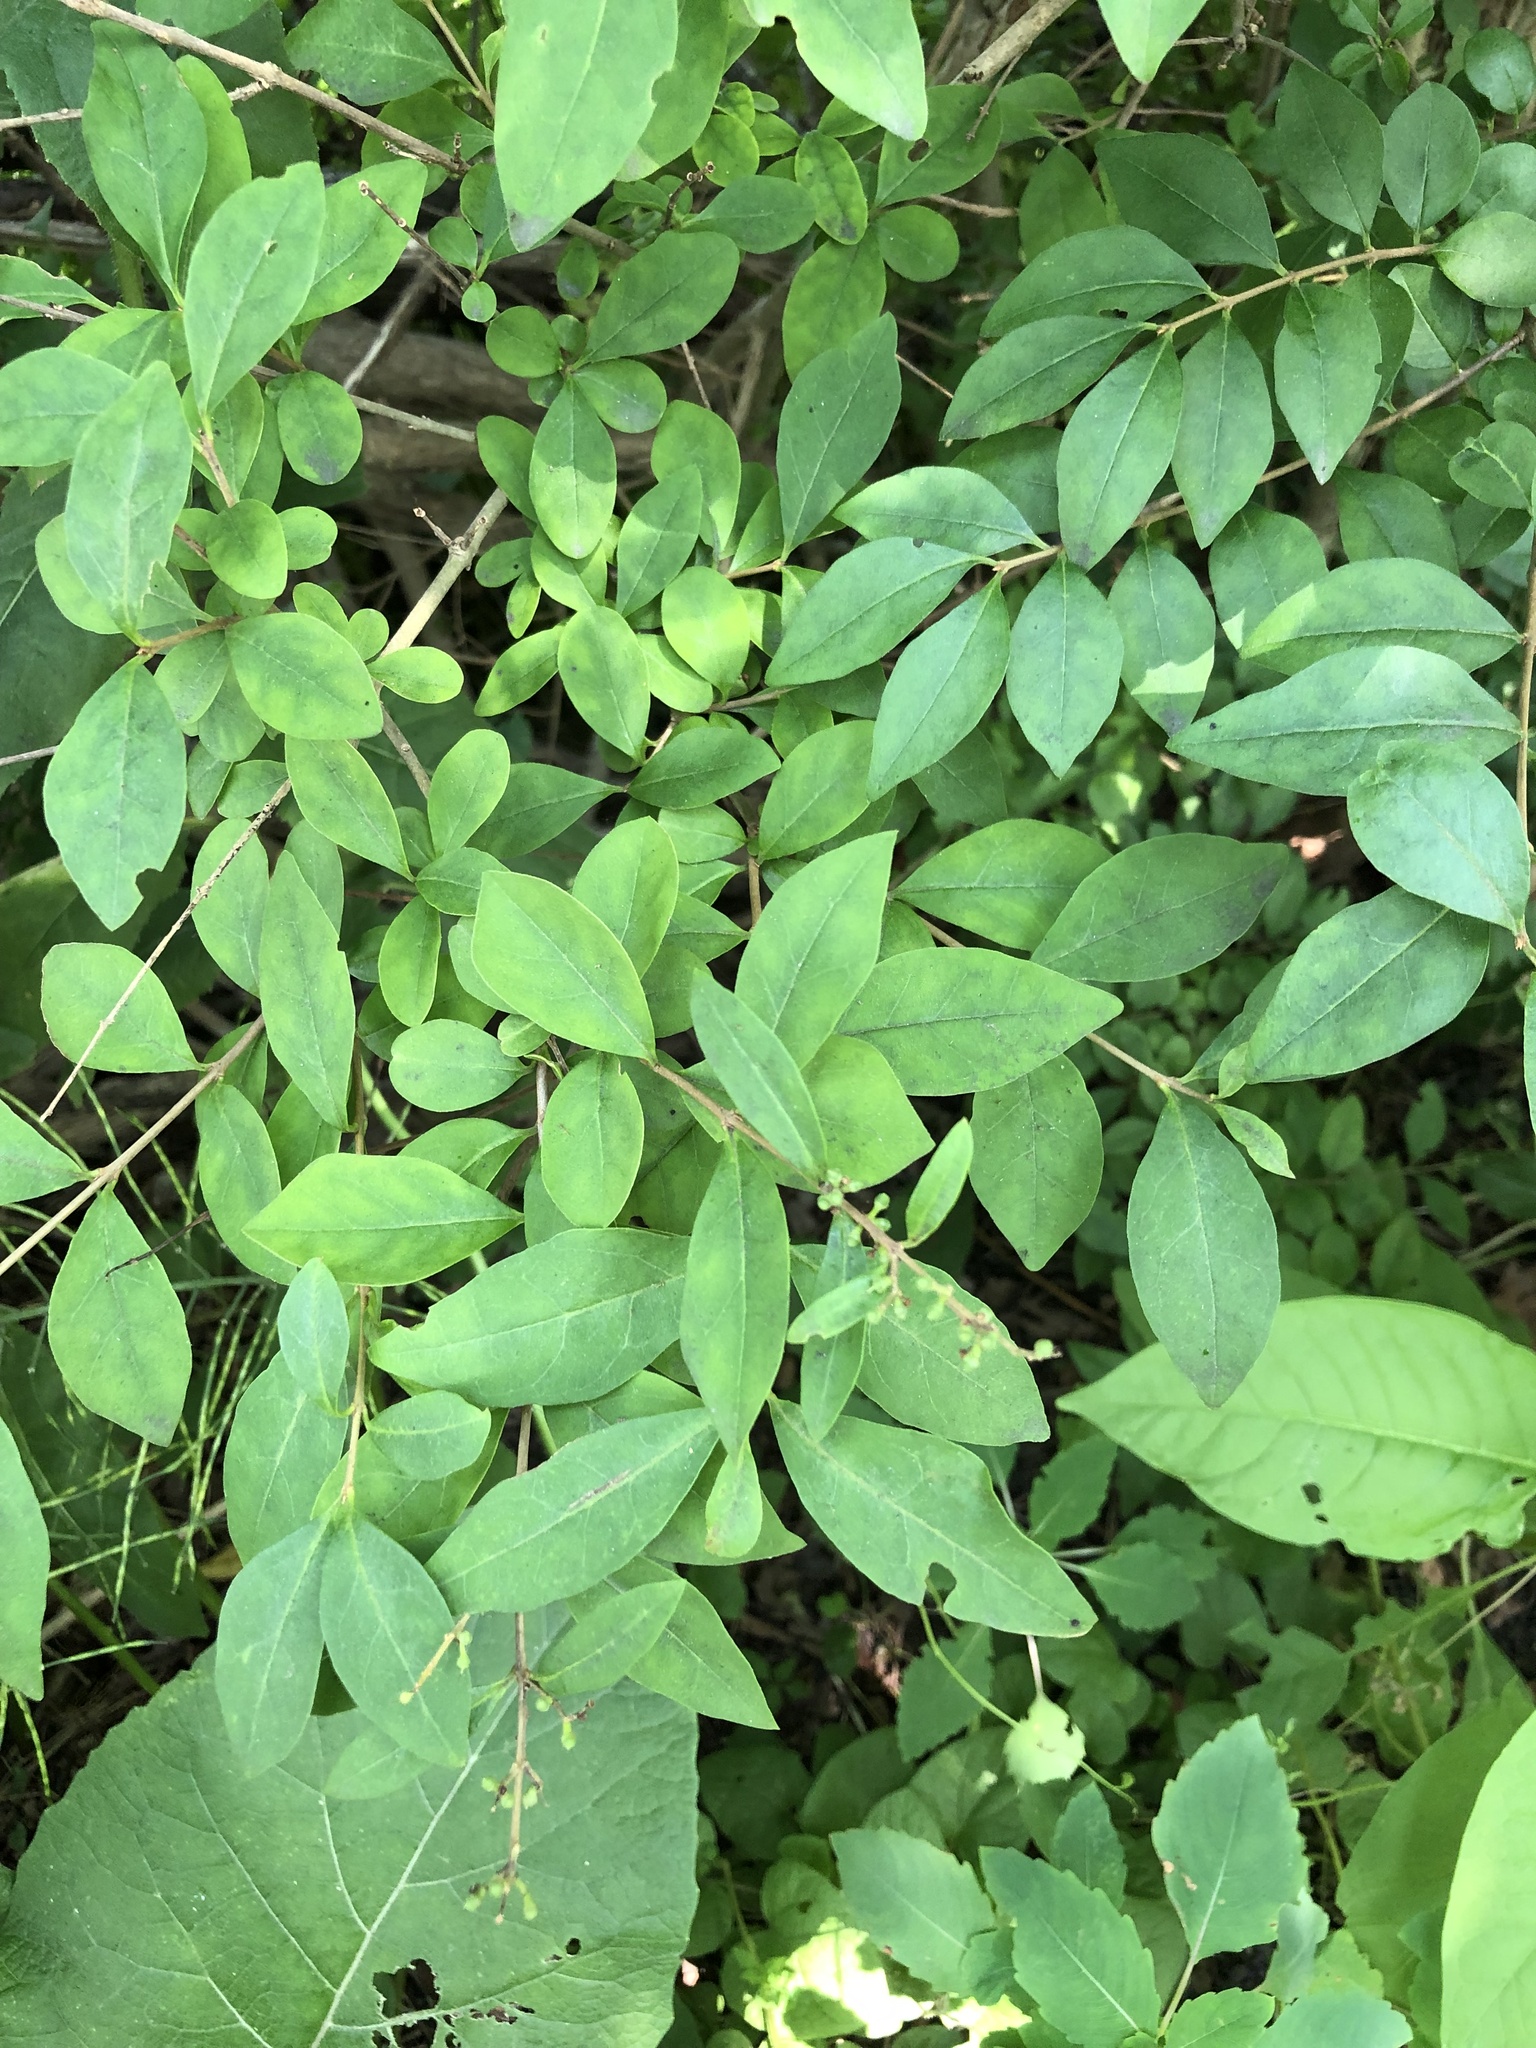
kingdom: Plantae
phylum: Tracheophyta
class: Magnoliopsida
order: Celastrales
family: Celastraceae
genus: Euonymus
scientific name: Euonymus alatus
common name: Winged euonymus
